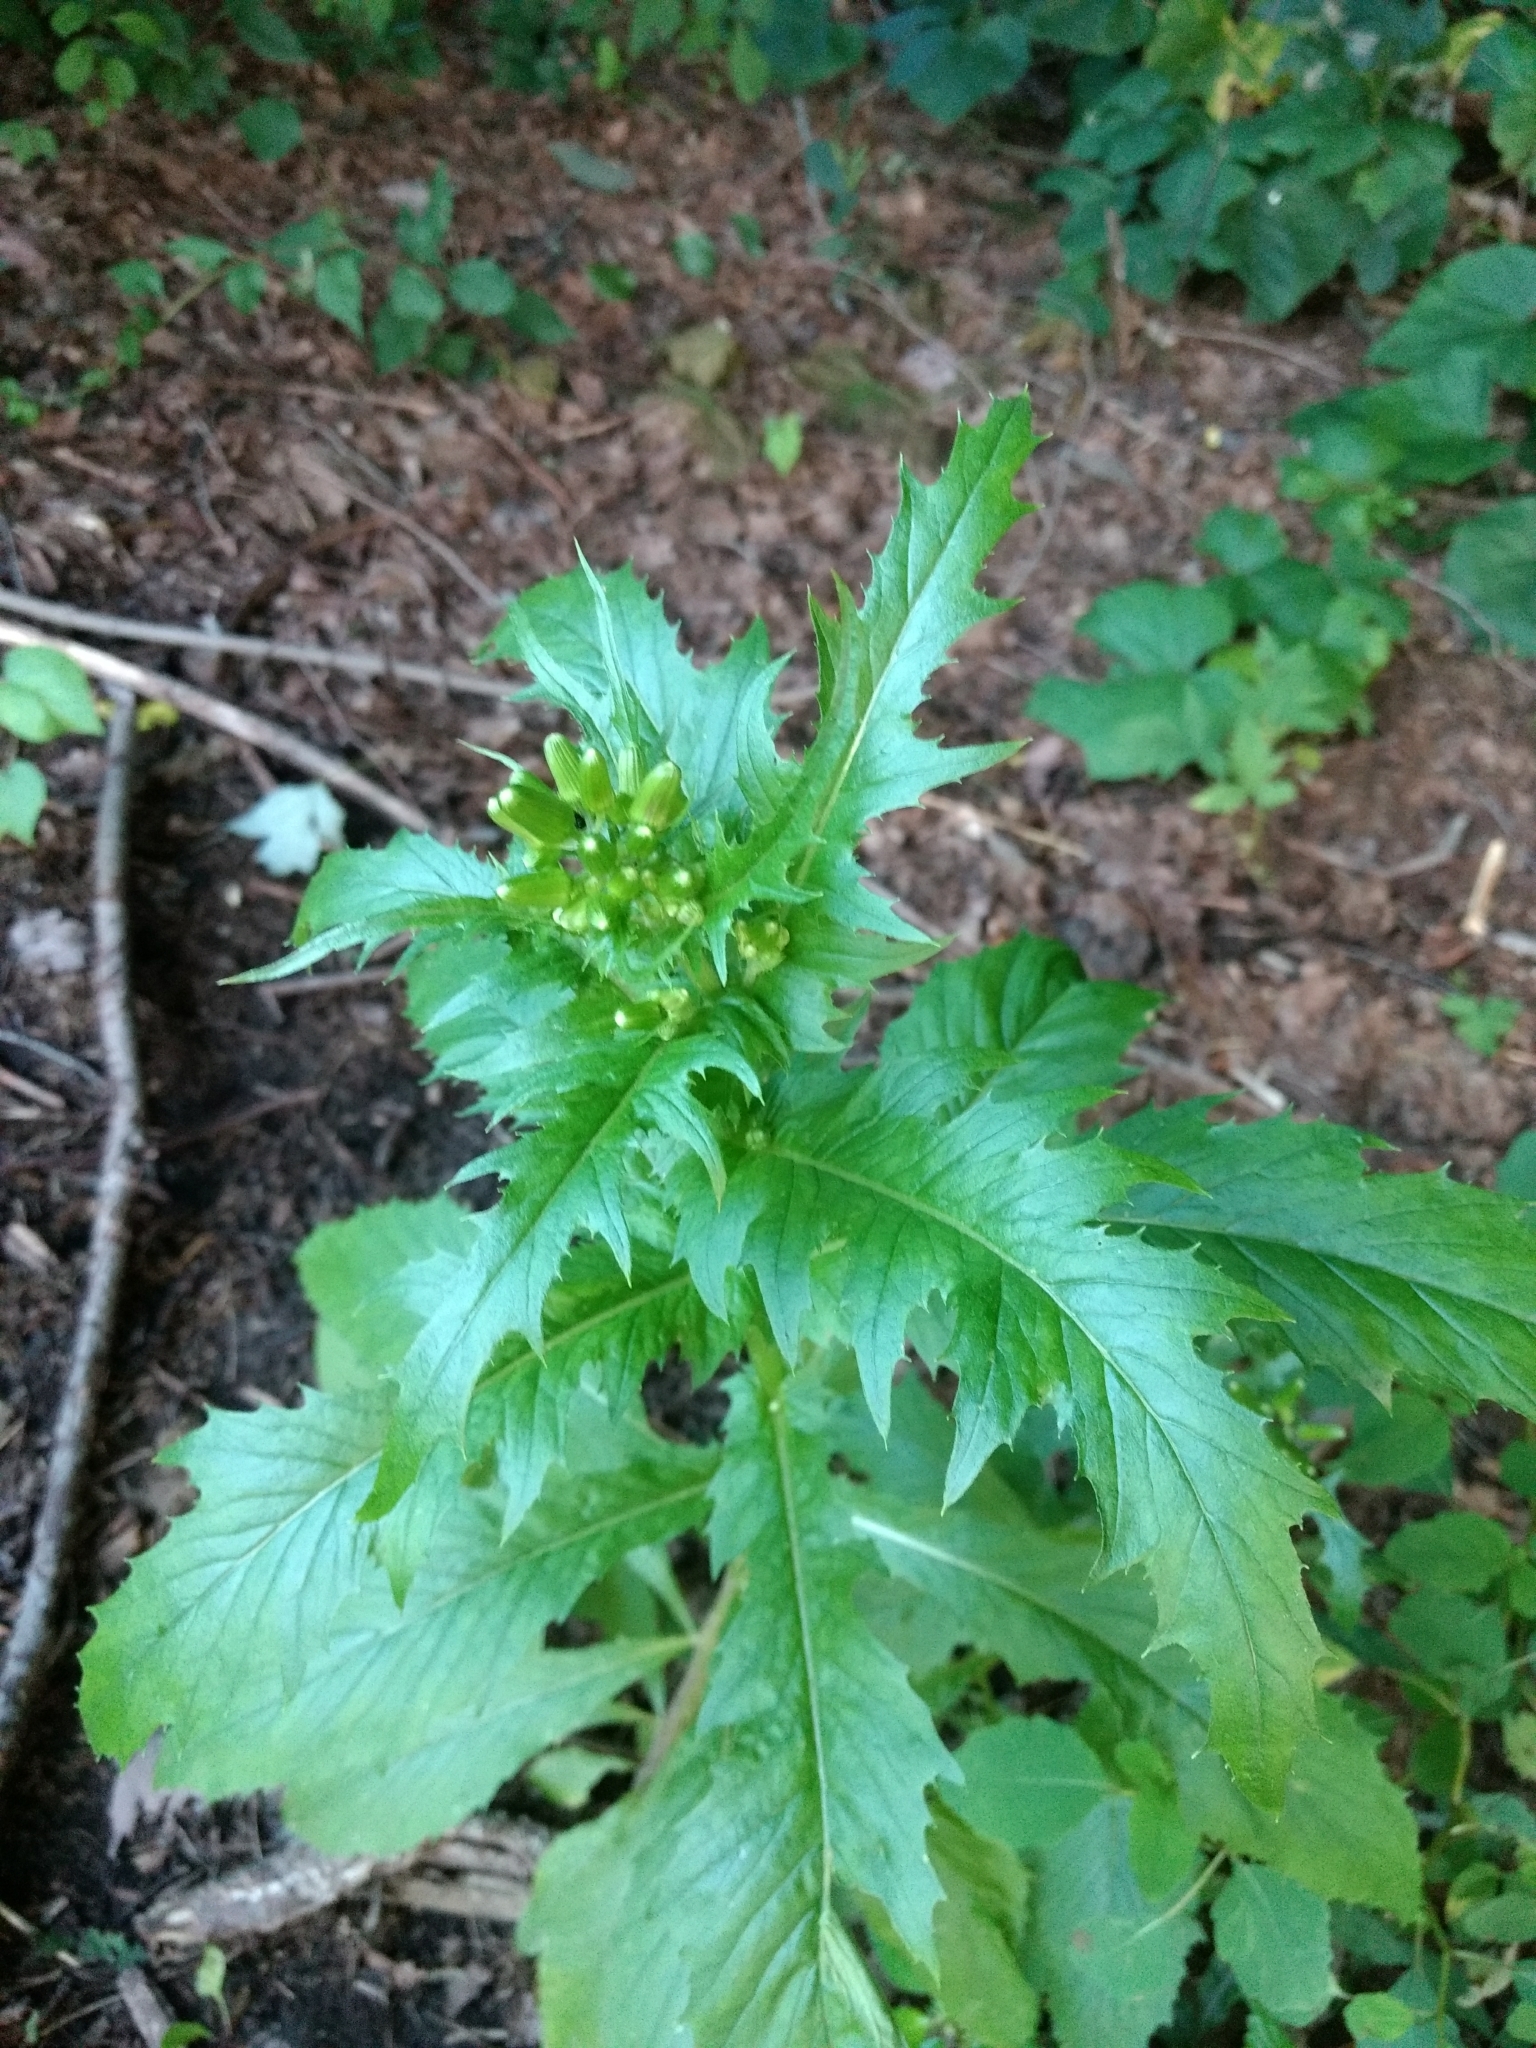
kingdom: Plantae
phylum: Tracheophyta
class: Magnoliopsida
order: Asterales
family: Asteraceae
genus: Erechtites
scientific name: Erechtites hieraciifolius
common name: American burnweed
